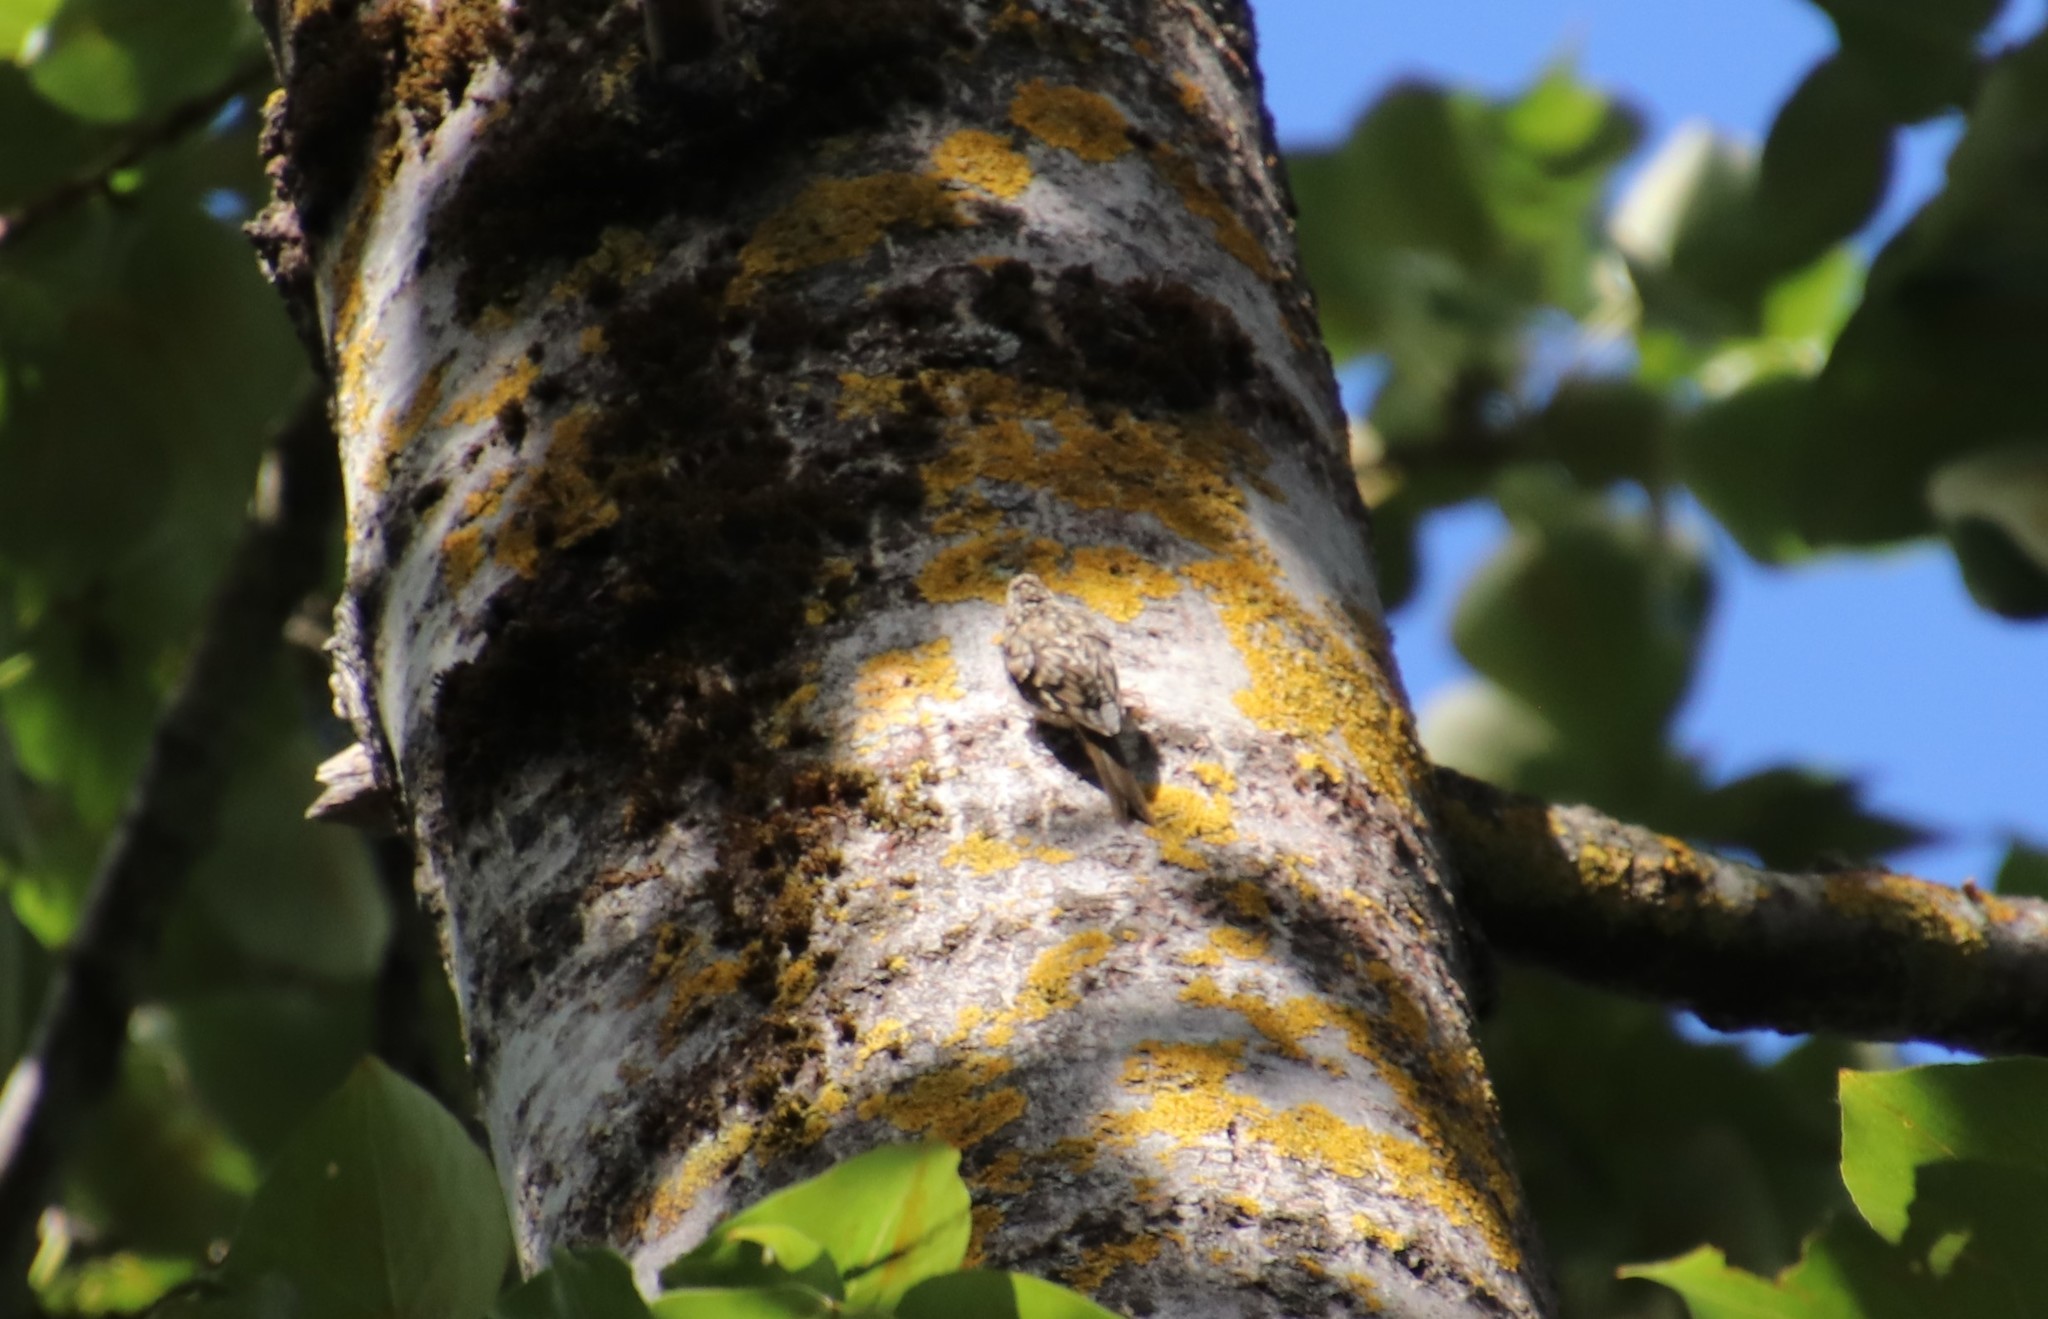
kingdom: Animalia
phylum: Chordata
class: Aves
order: Passeriformes
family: Certhiidae
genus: Certhia
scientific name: Certhia americana
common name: Brown creeper
